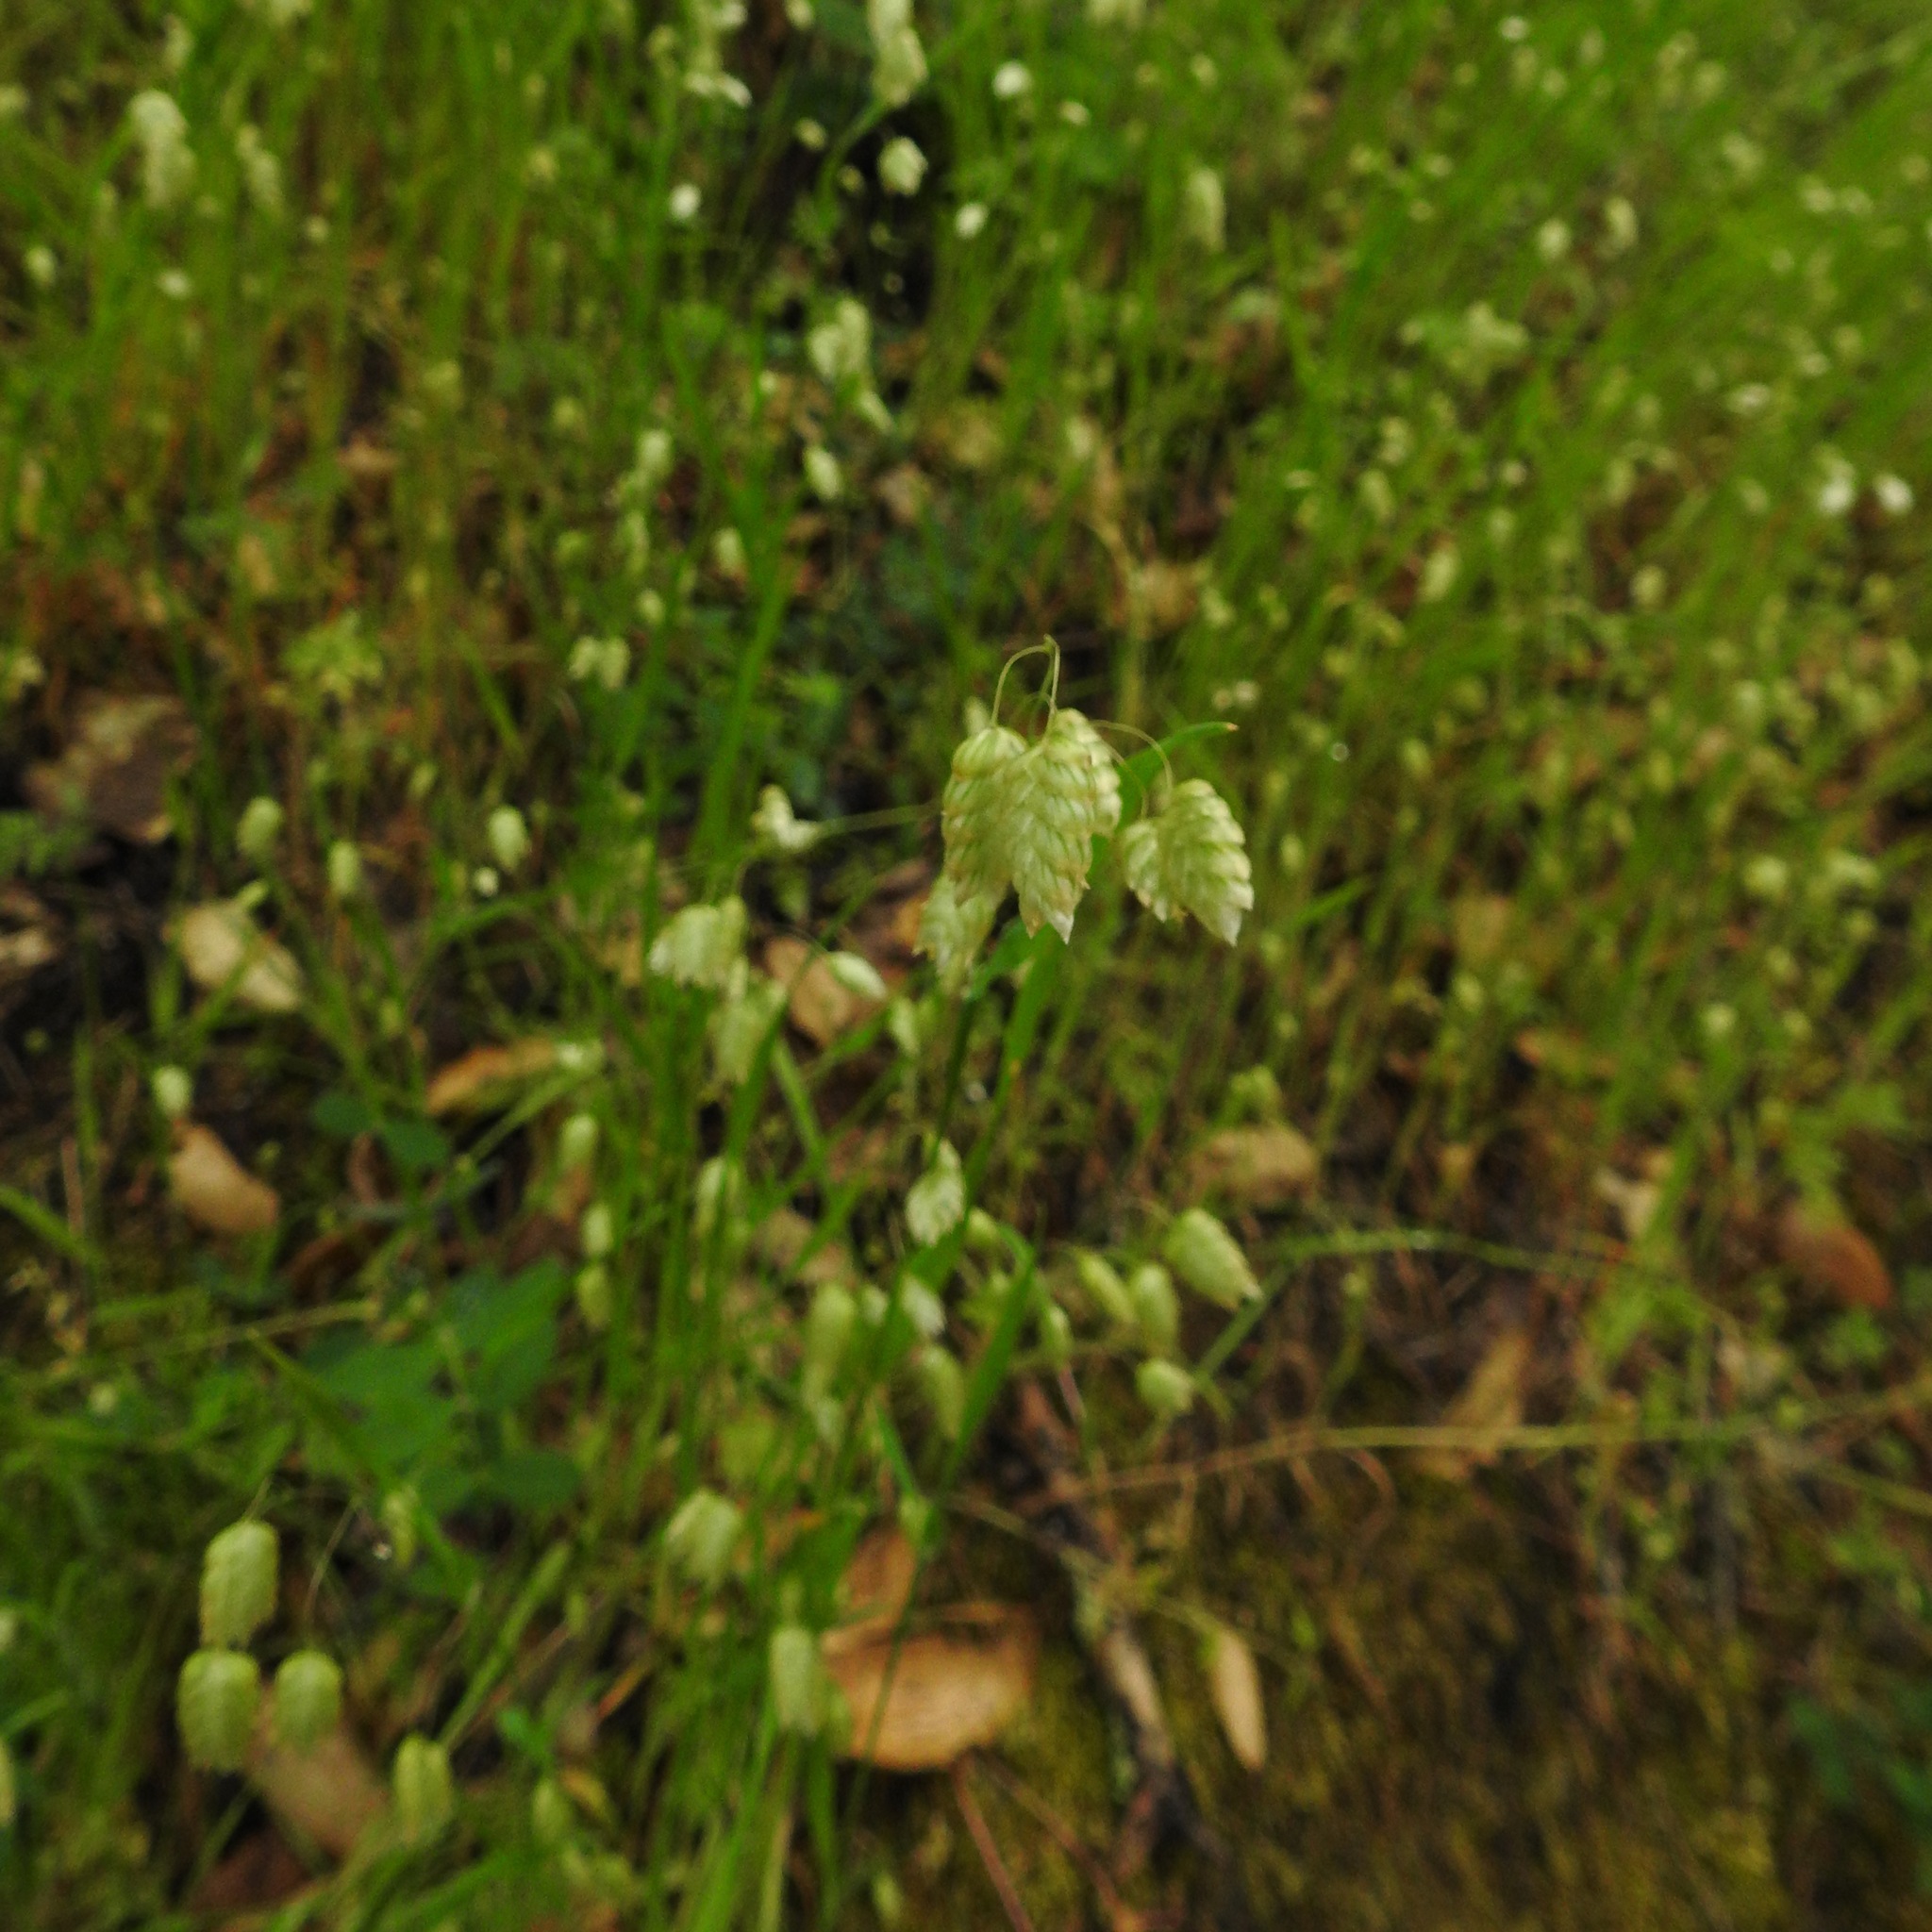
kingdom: Plantae
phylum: Tracheophyta
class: Liliopsida
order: Poales
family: Poaceae
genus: Briza
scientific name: Briza maxima
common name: Big quakinggrass
